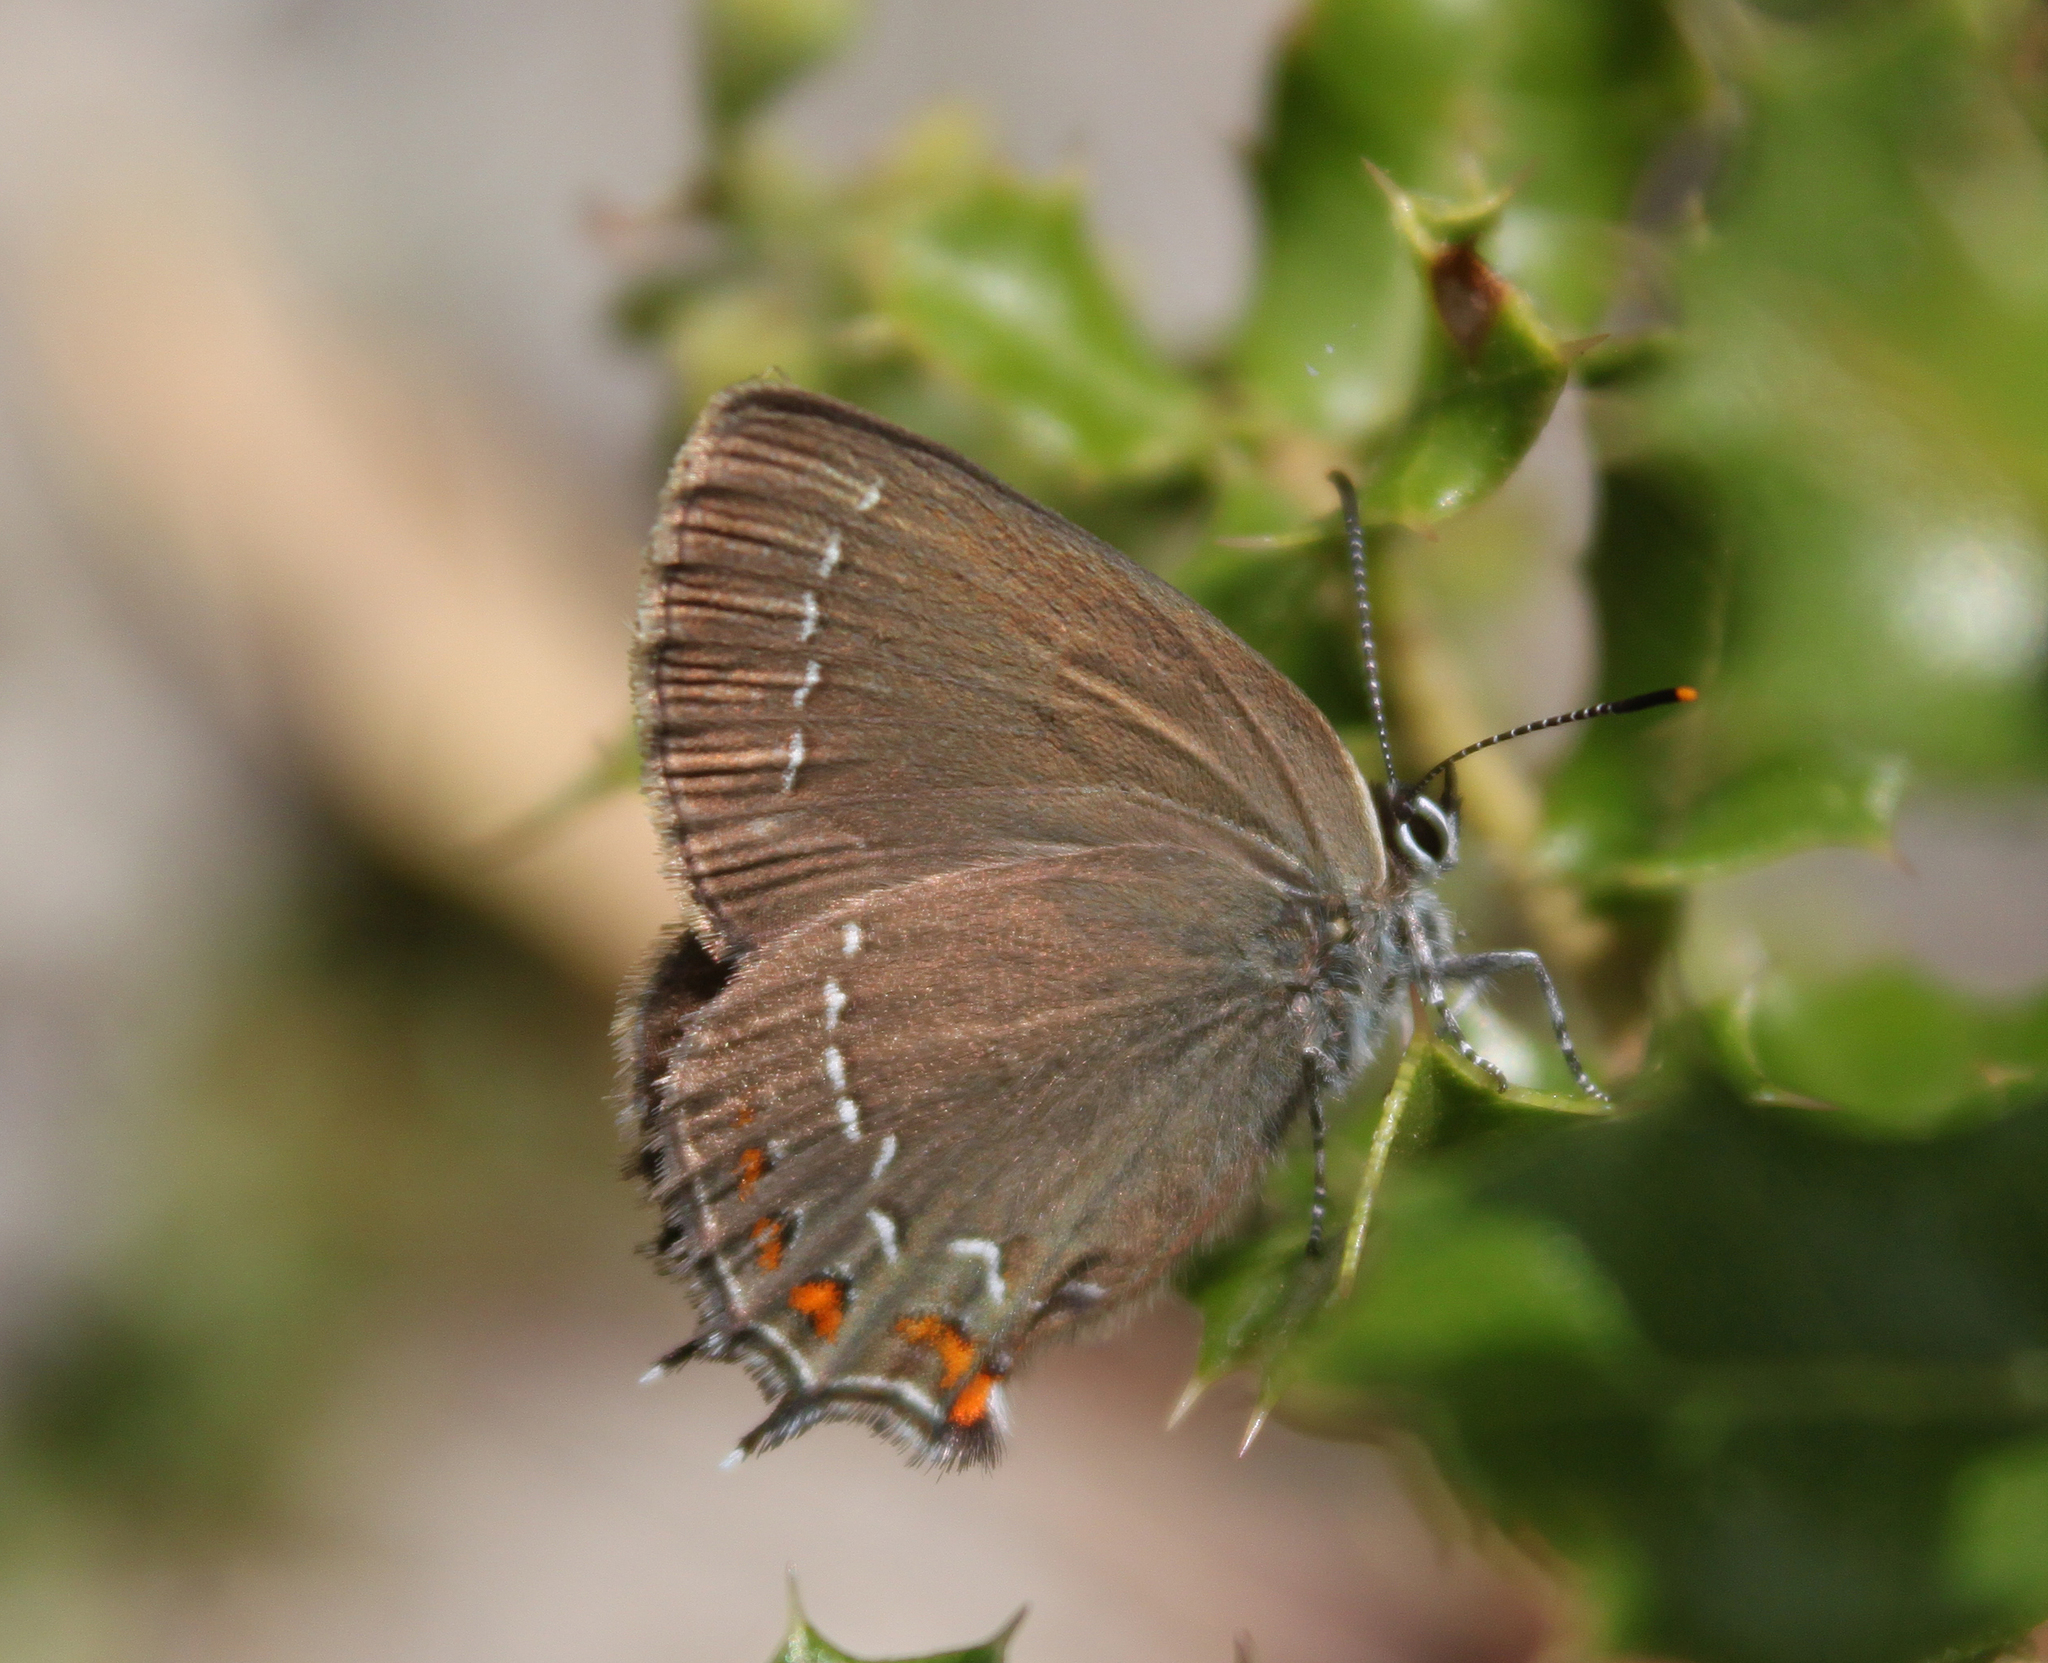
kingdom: Animalia
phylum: Arthropoda
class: Insecta
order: Lepidoptera
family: Lycaenidae
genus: Nordmannia
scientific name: Nordmannia ilicis
